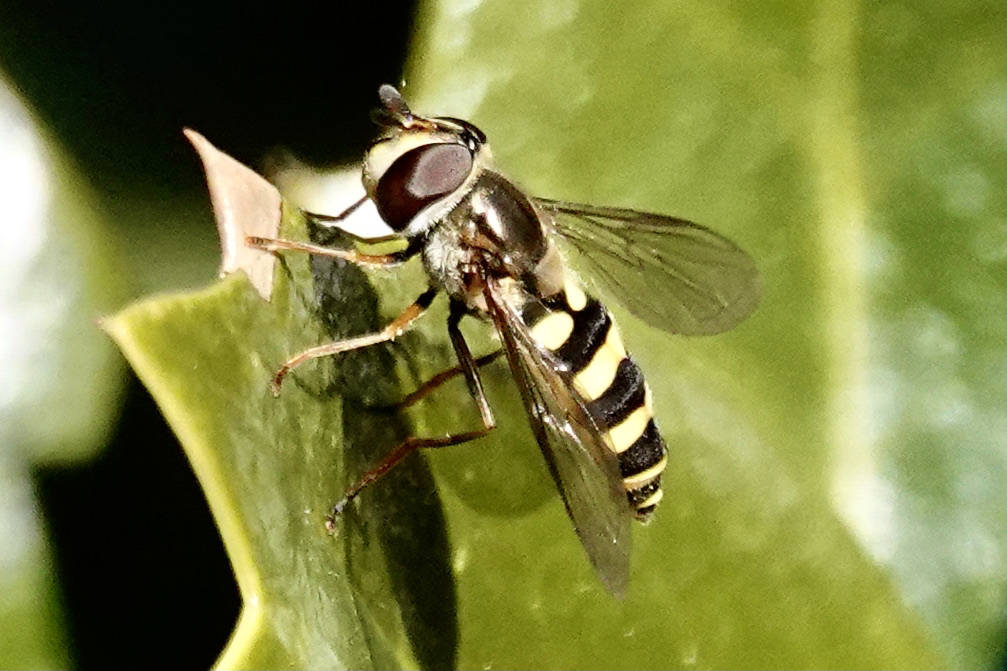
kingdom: Animalia
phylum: Arthropoda
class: Insecta
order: Diptera
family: Syrphidae
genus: Eupeodes
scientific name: Eupeodes
